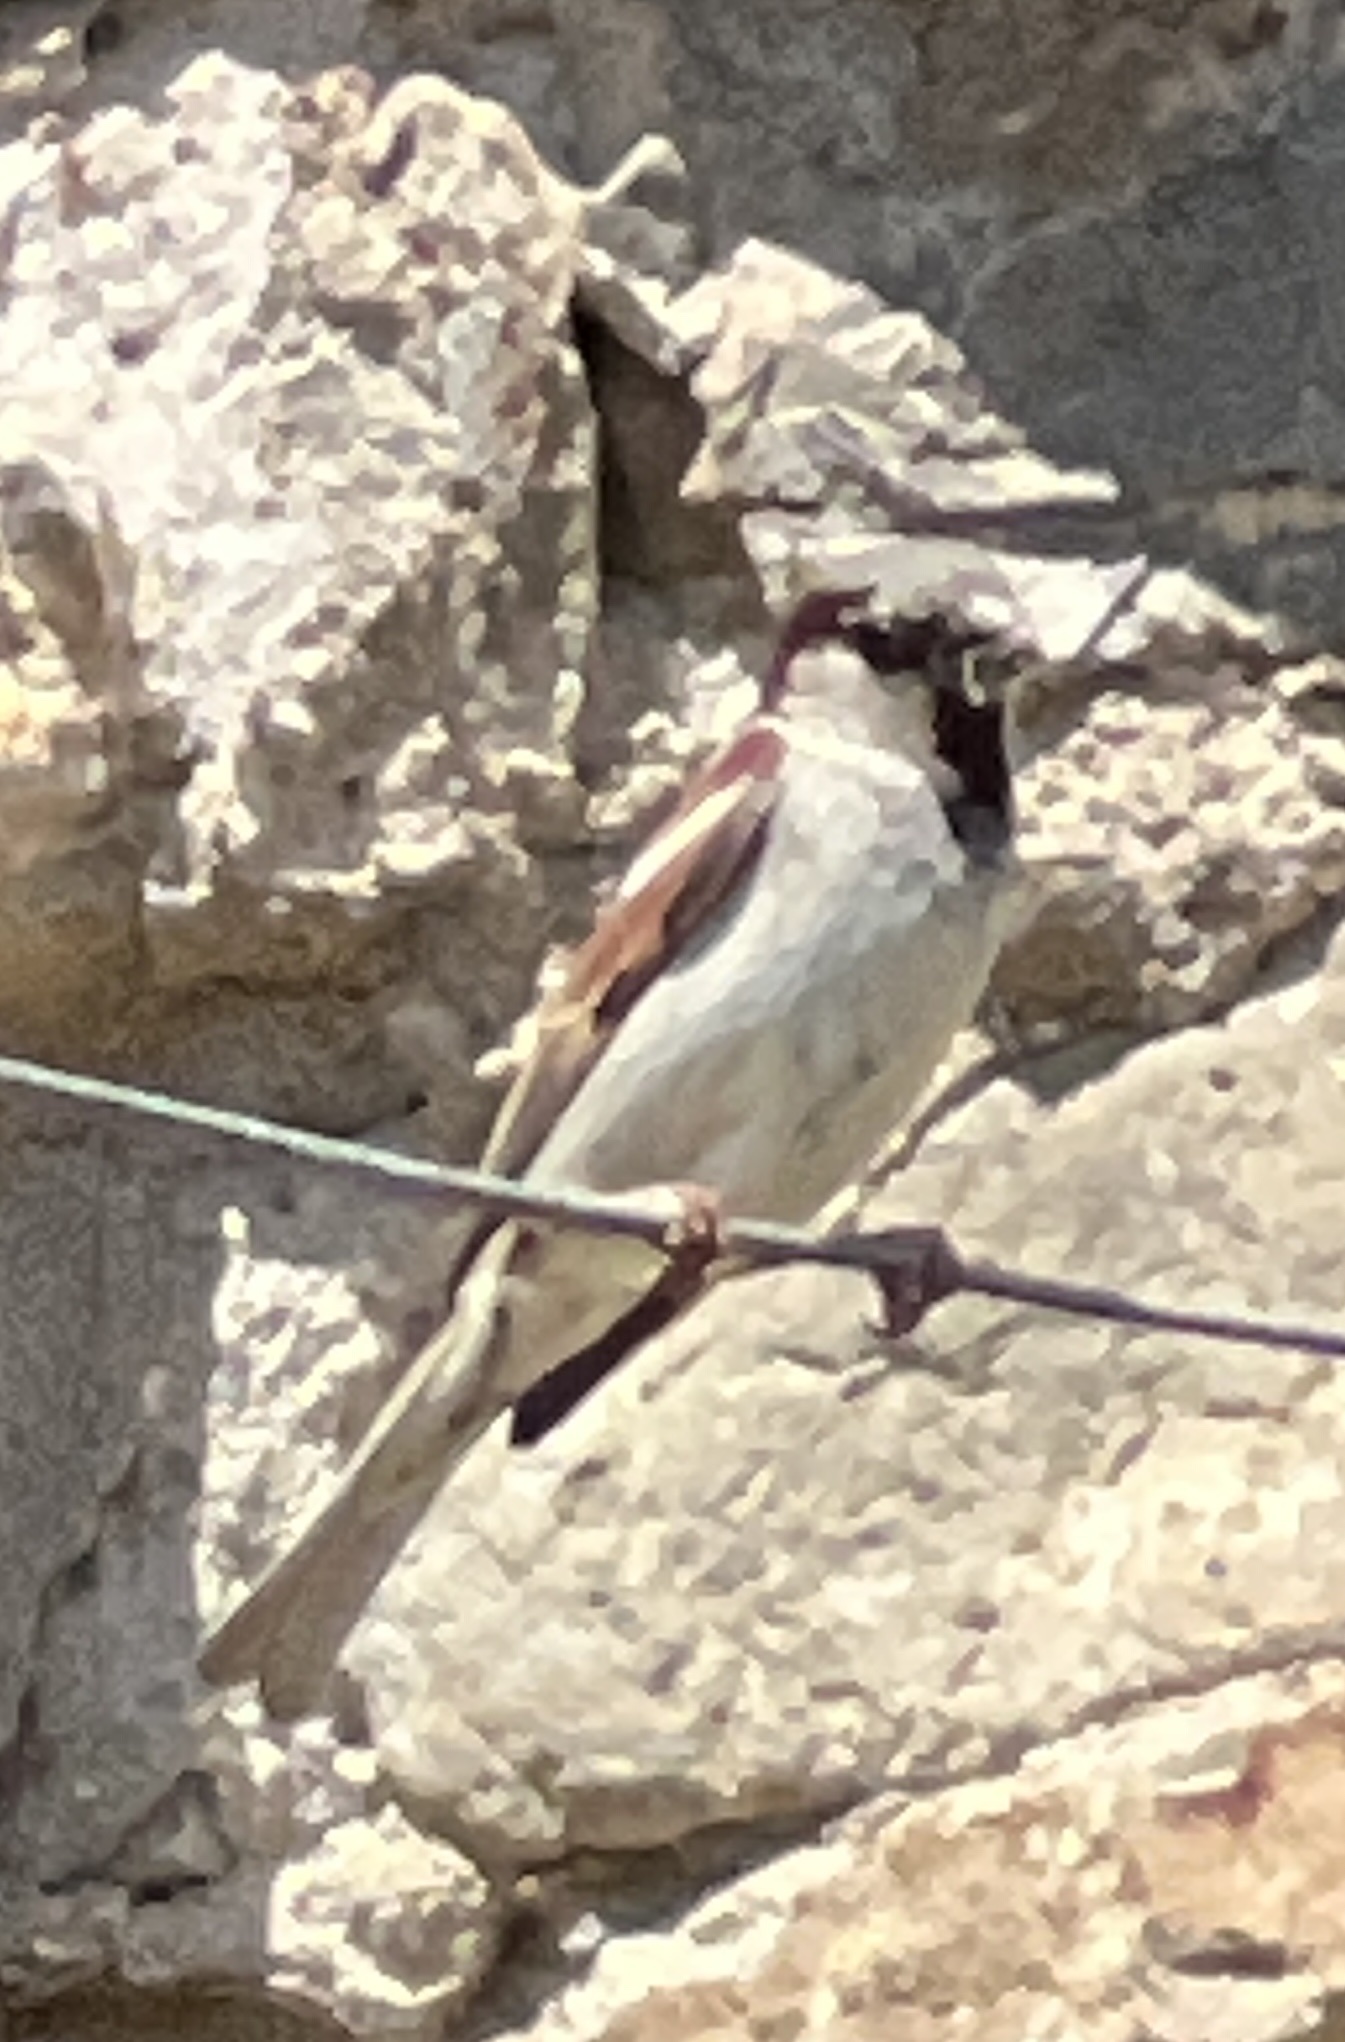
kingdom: Animalia
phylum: Chordata
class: Aves
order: Passeriformes
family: Passeridae
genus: Passer
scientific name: Passer domesticus
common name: House sparrow
